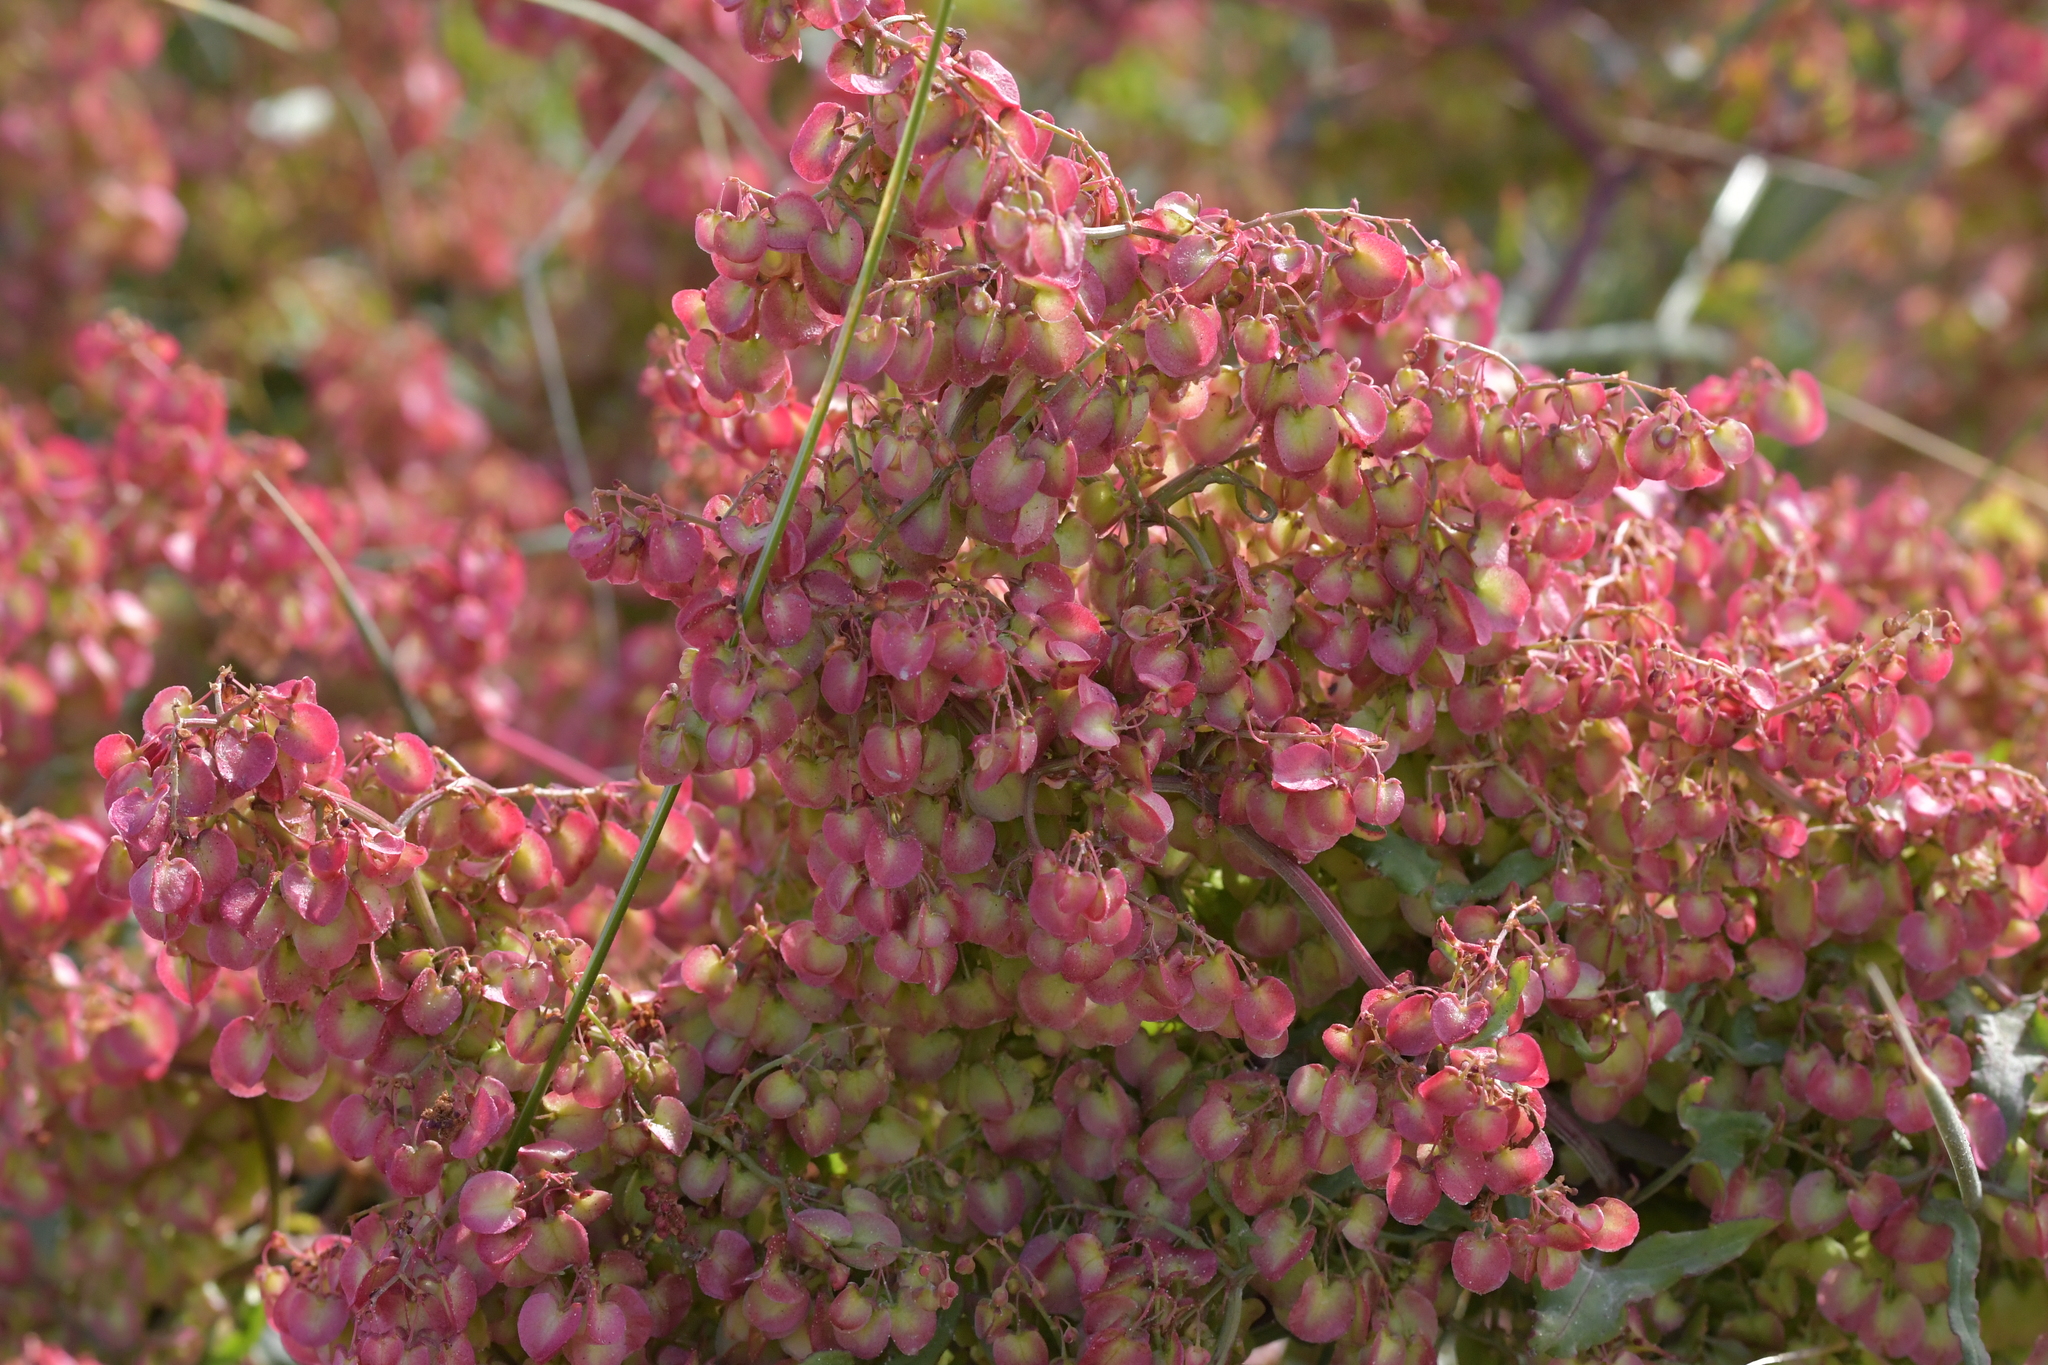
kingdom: Plantae
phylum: Tracheophyta
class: Magnoliopsida
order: Caryophyllales
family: Polygonaceae
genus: Rumex
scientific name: Rumex sagittatus
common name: Climbing dock
